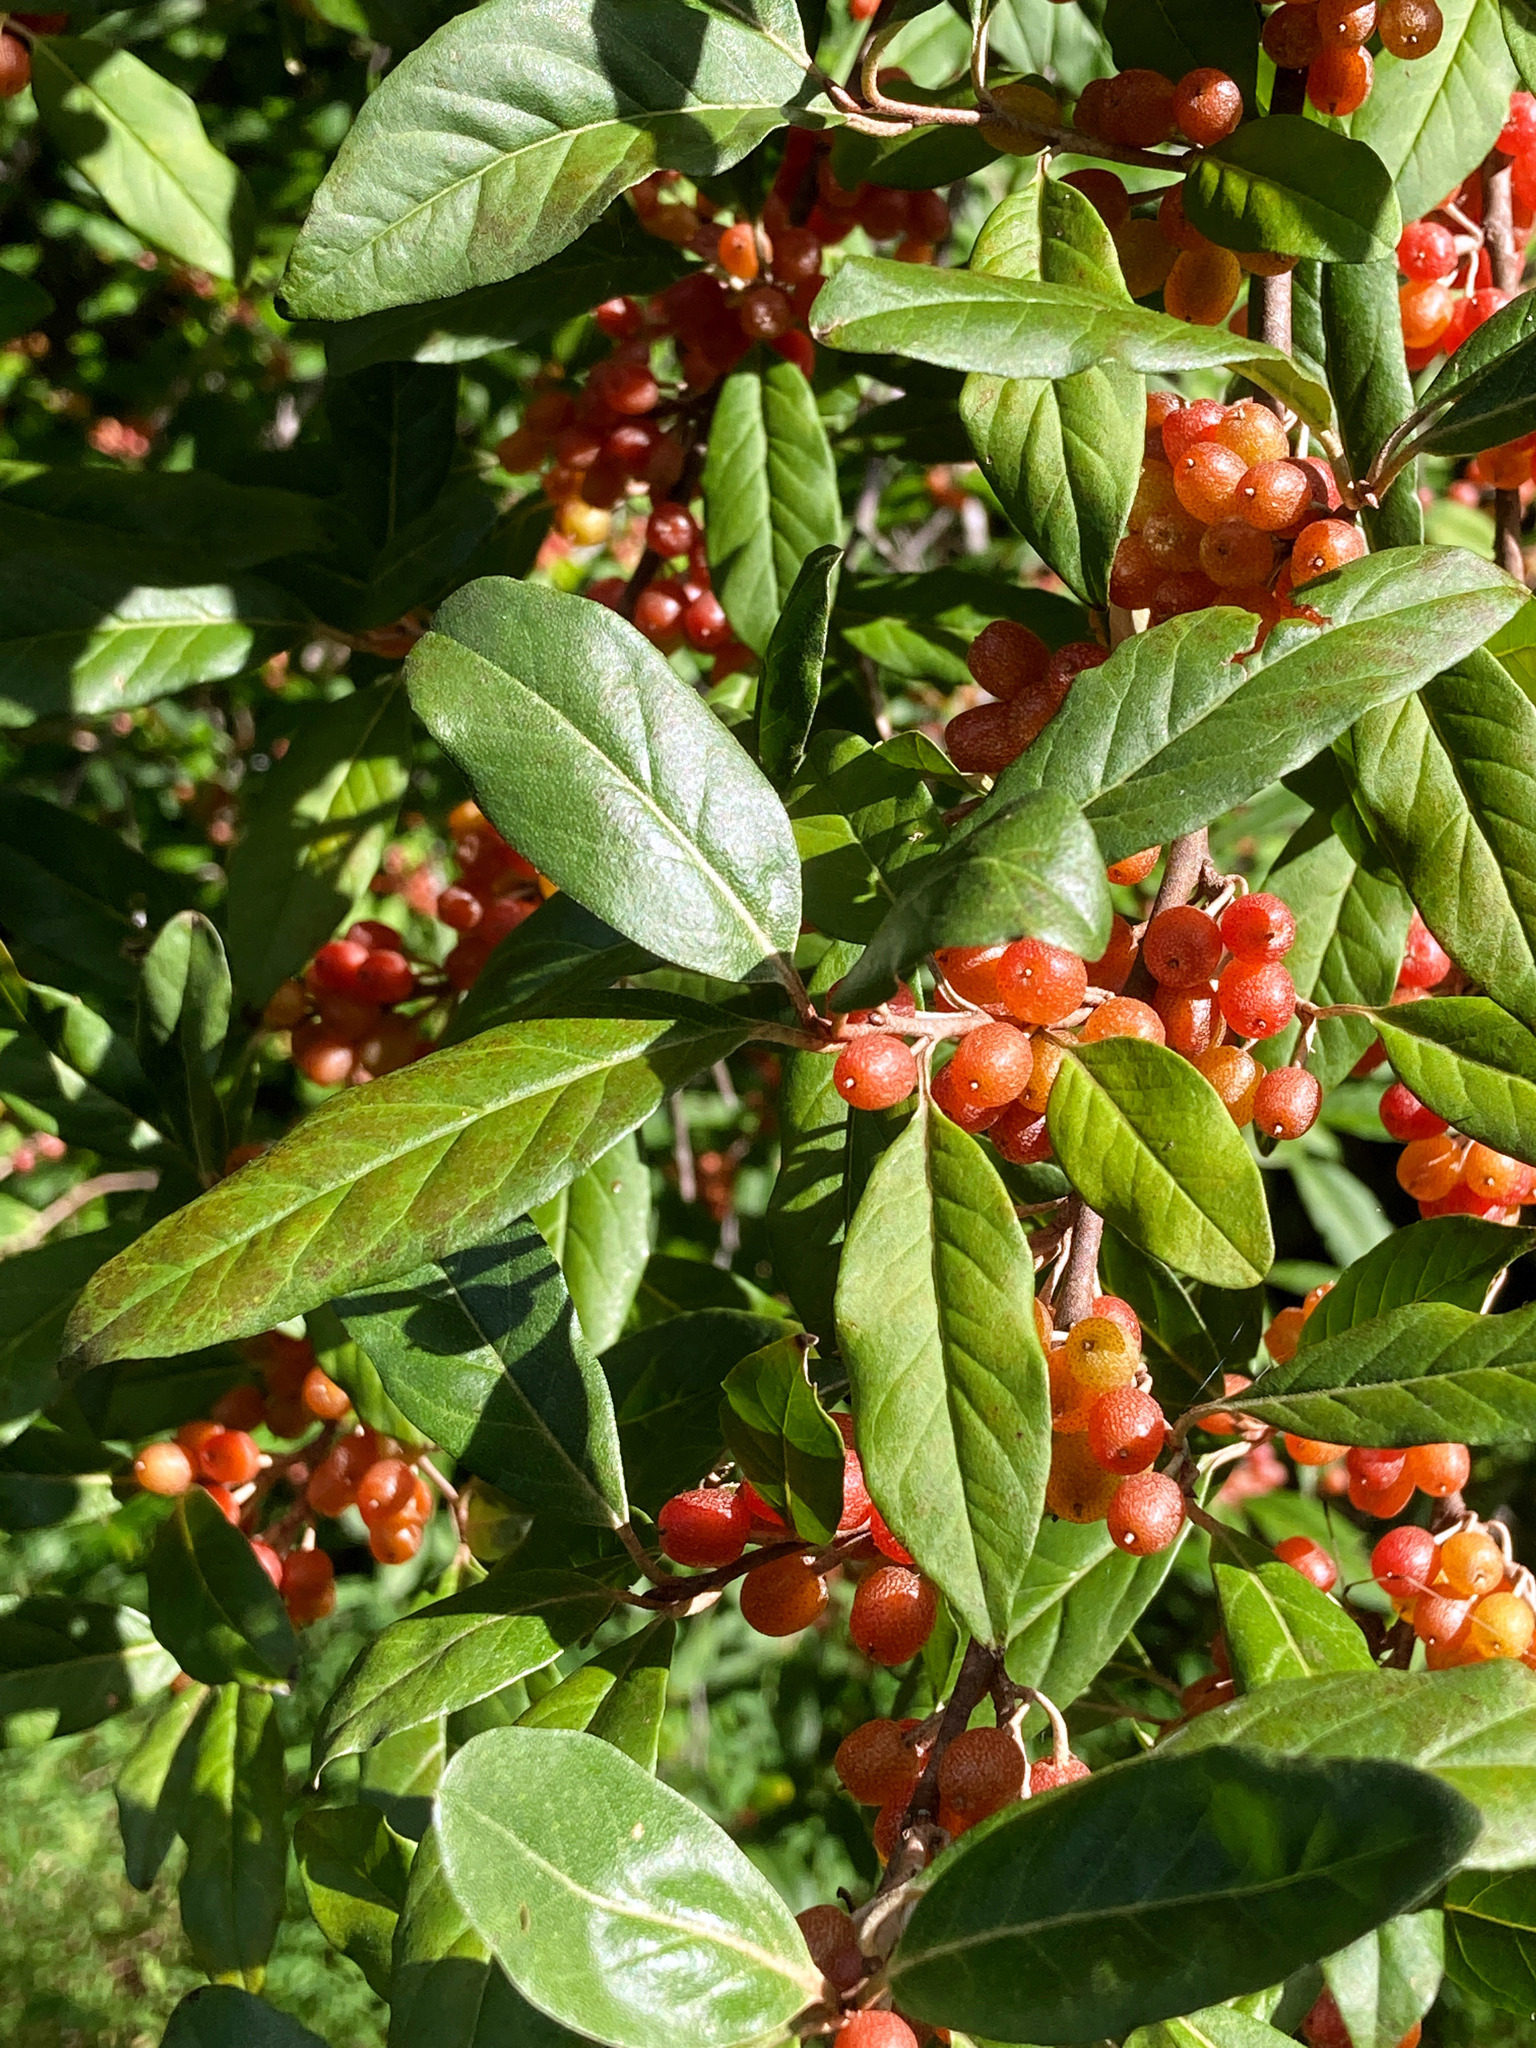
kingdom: Plantae
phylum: Tracheophyta
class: Magnoliopsida
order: Rosales
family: Elaeagnaceae
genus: Elaeagnus
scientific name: Elaeagnus umbellata
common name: Autumn olive
